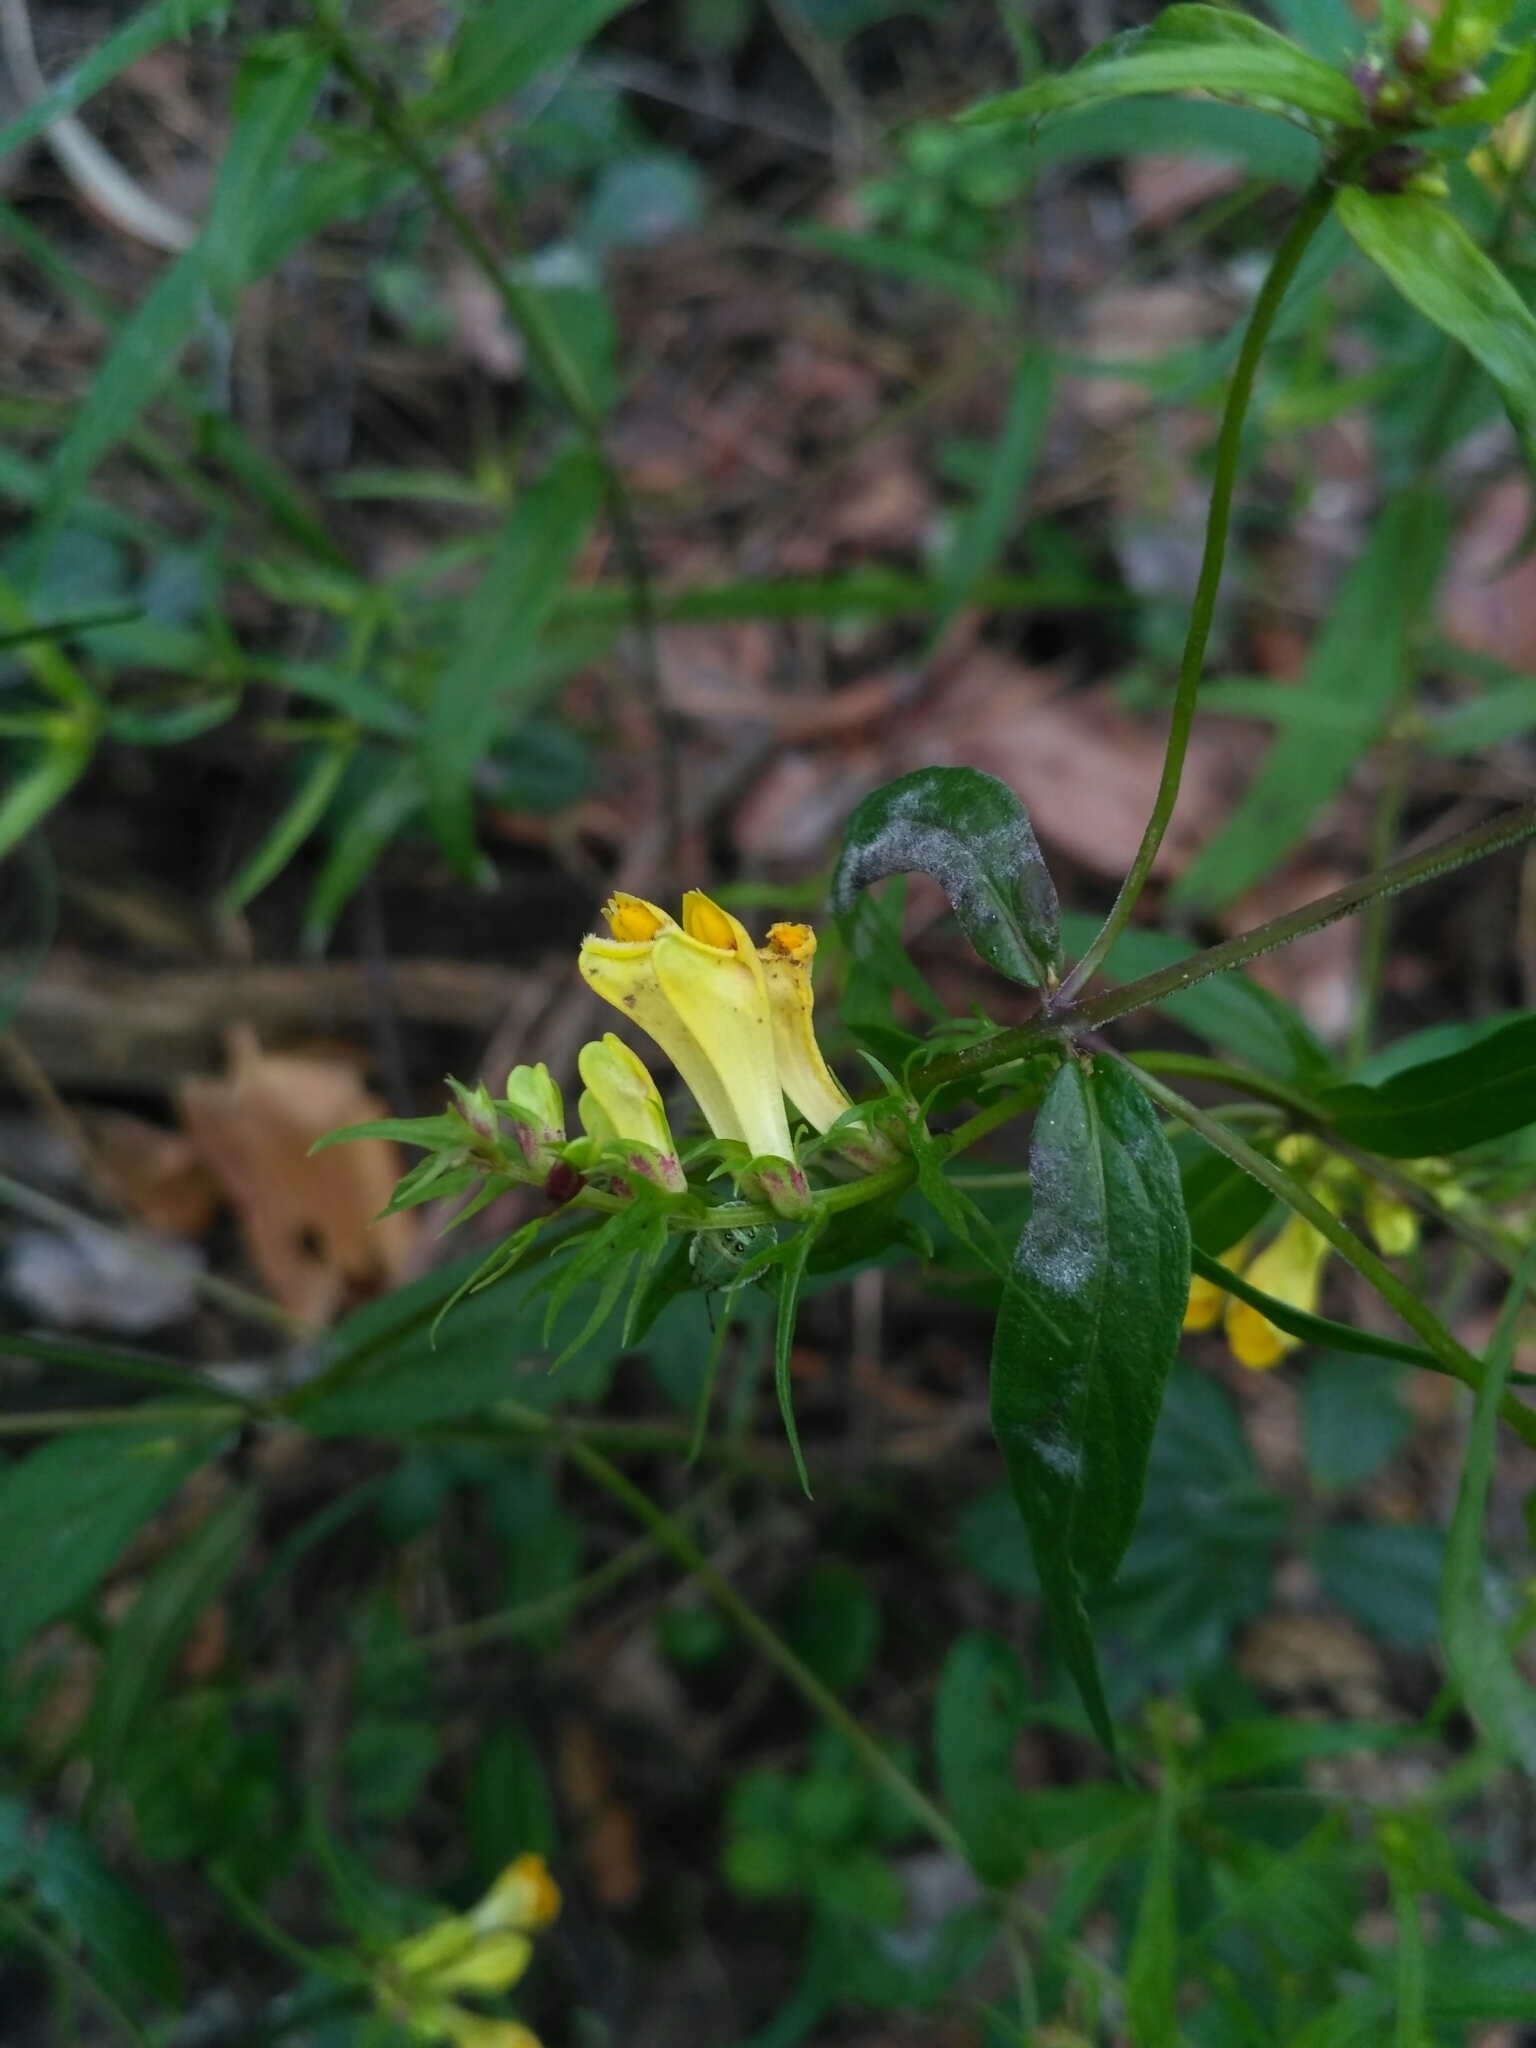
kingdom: Plantae
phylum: Tracheophyta
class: Magnoliopsida
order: Lamiales
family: Orobanchaceae
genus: Melampyrum
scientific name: Melampyrum pratense
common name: Common cow-wheat
